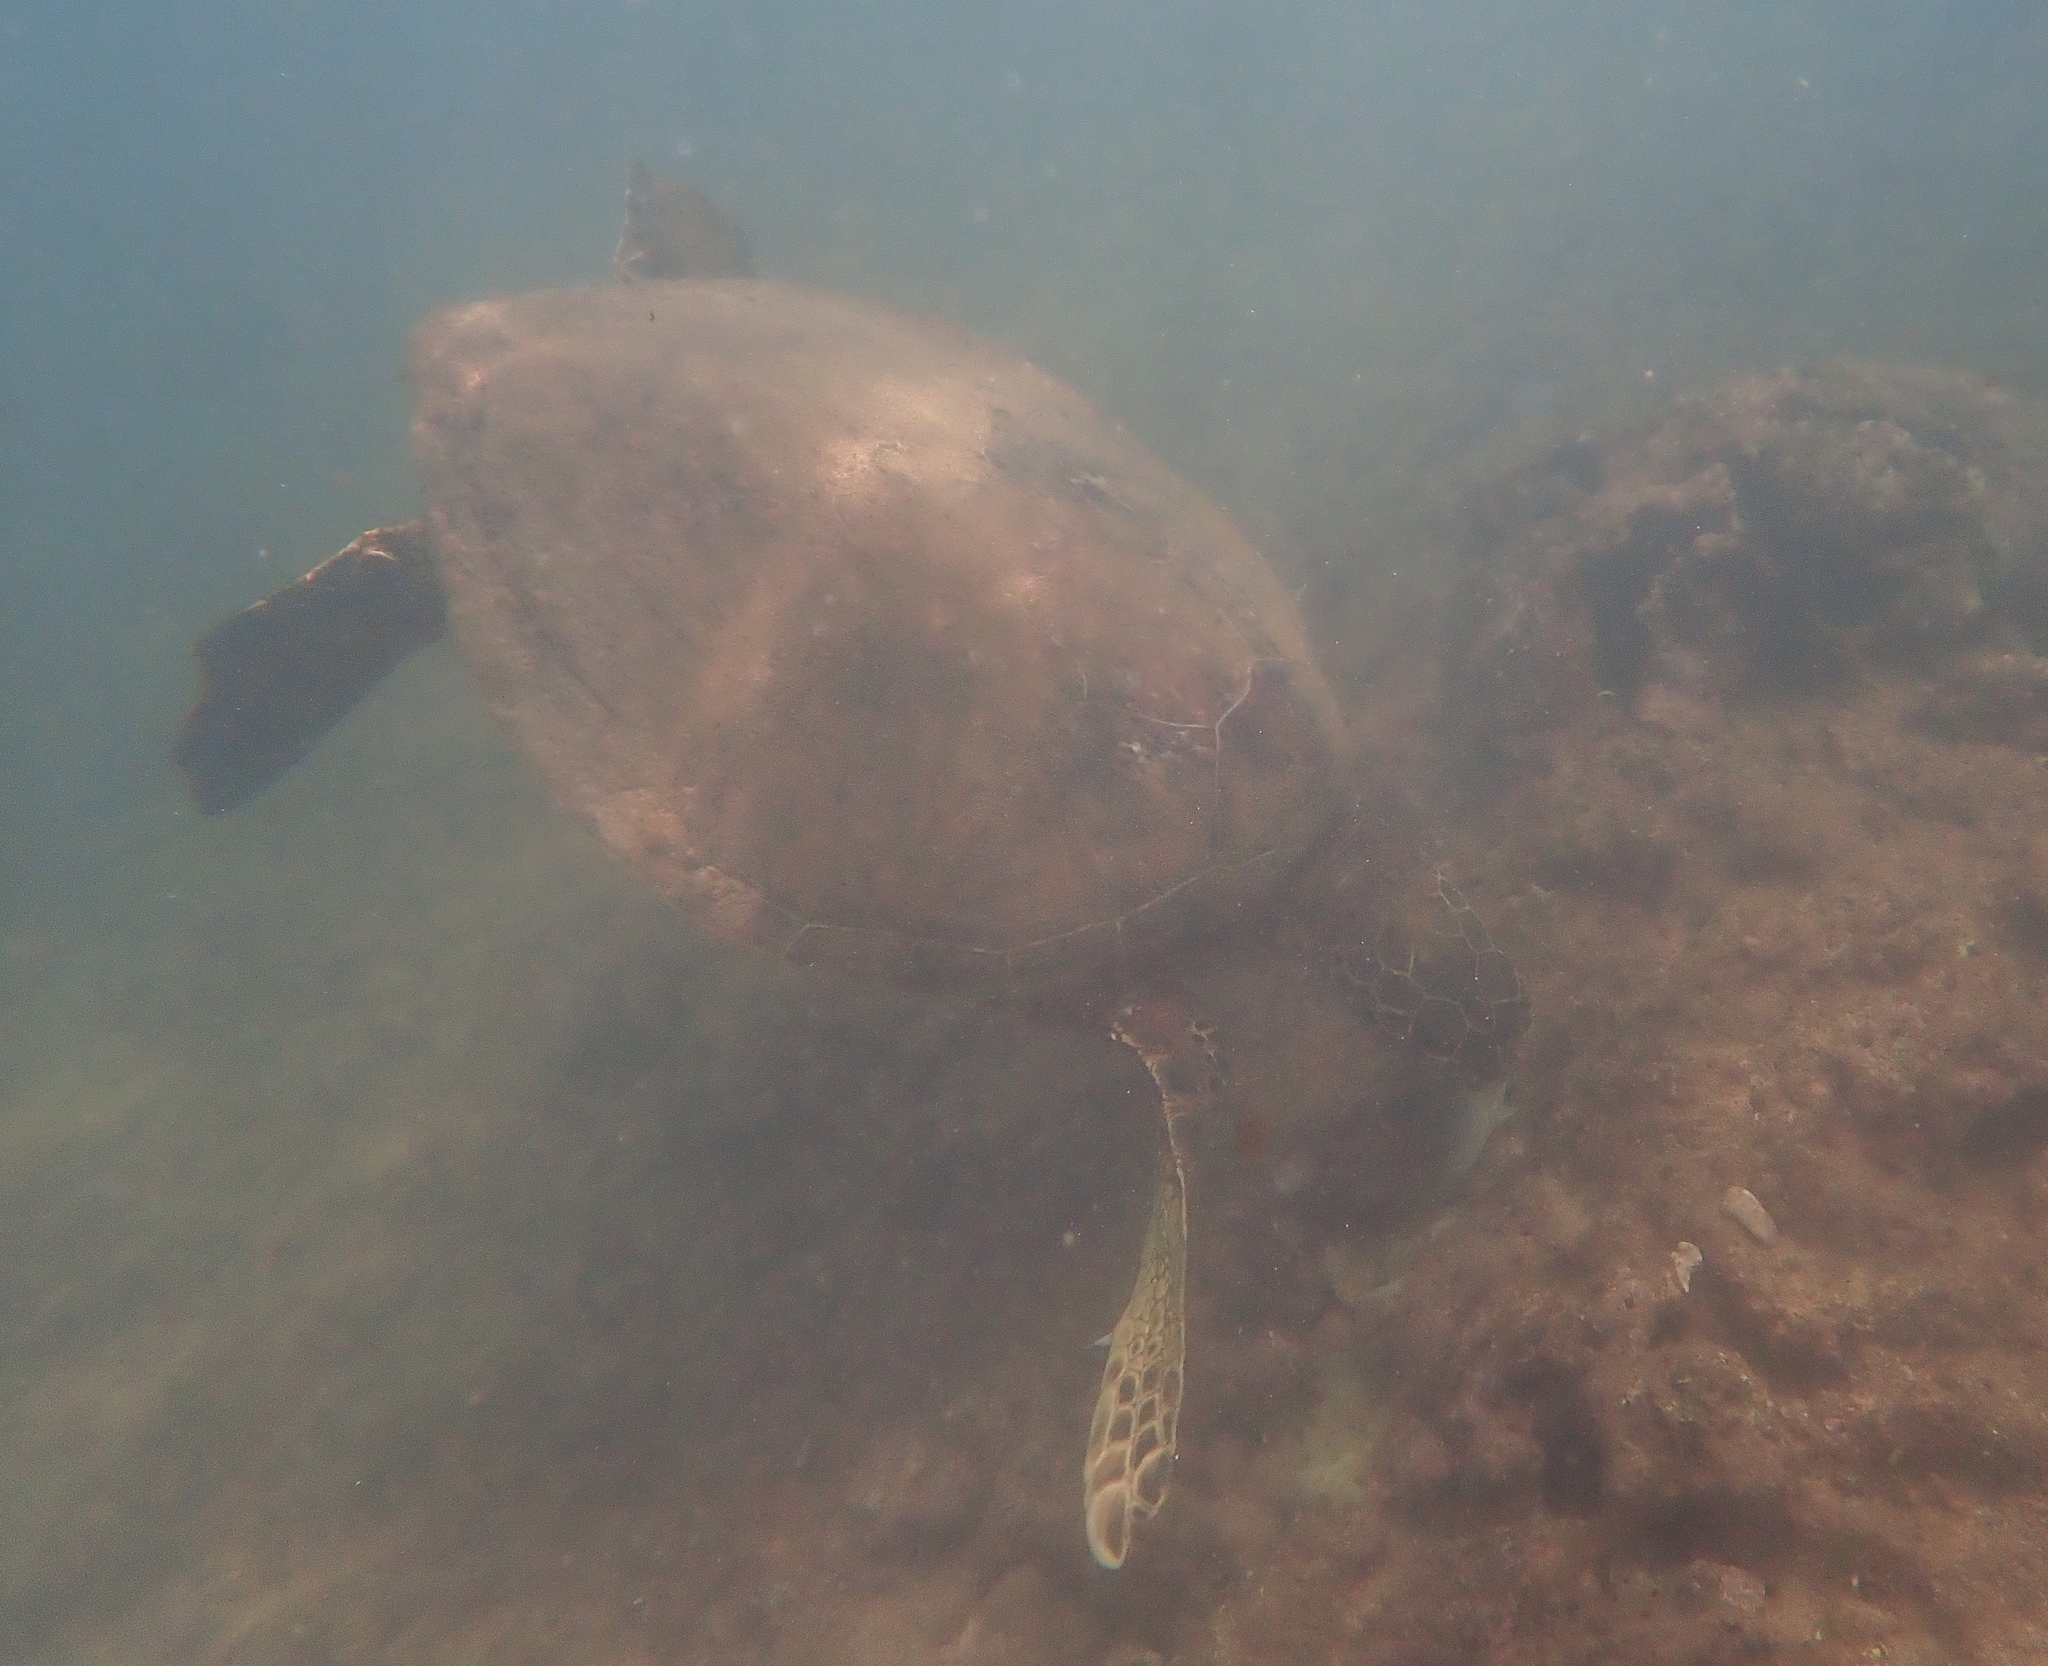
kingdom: Animalia
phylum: Chordata
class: Testudines
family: Cheloniidae
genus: Chelonia
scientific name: Chelonia mydas
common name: Green turtle
